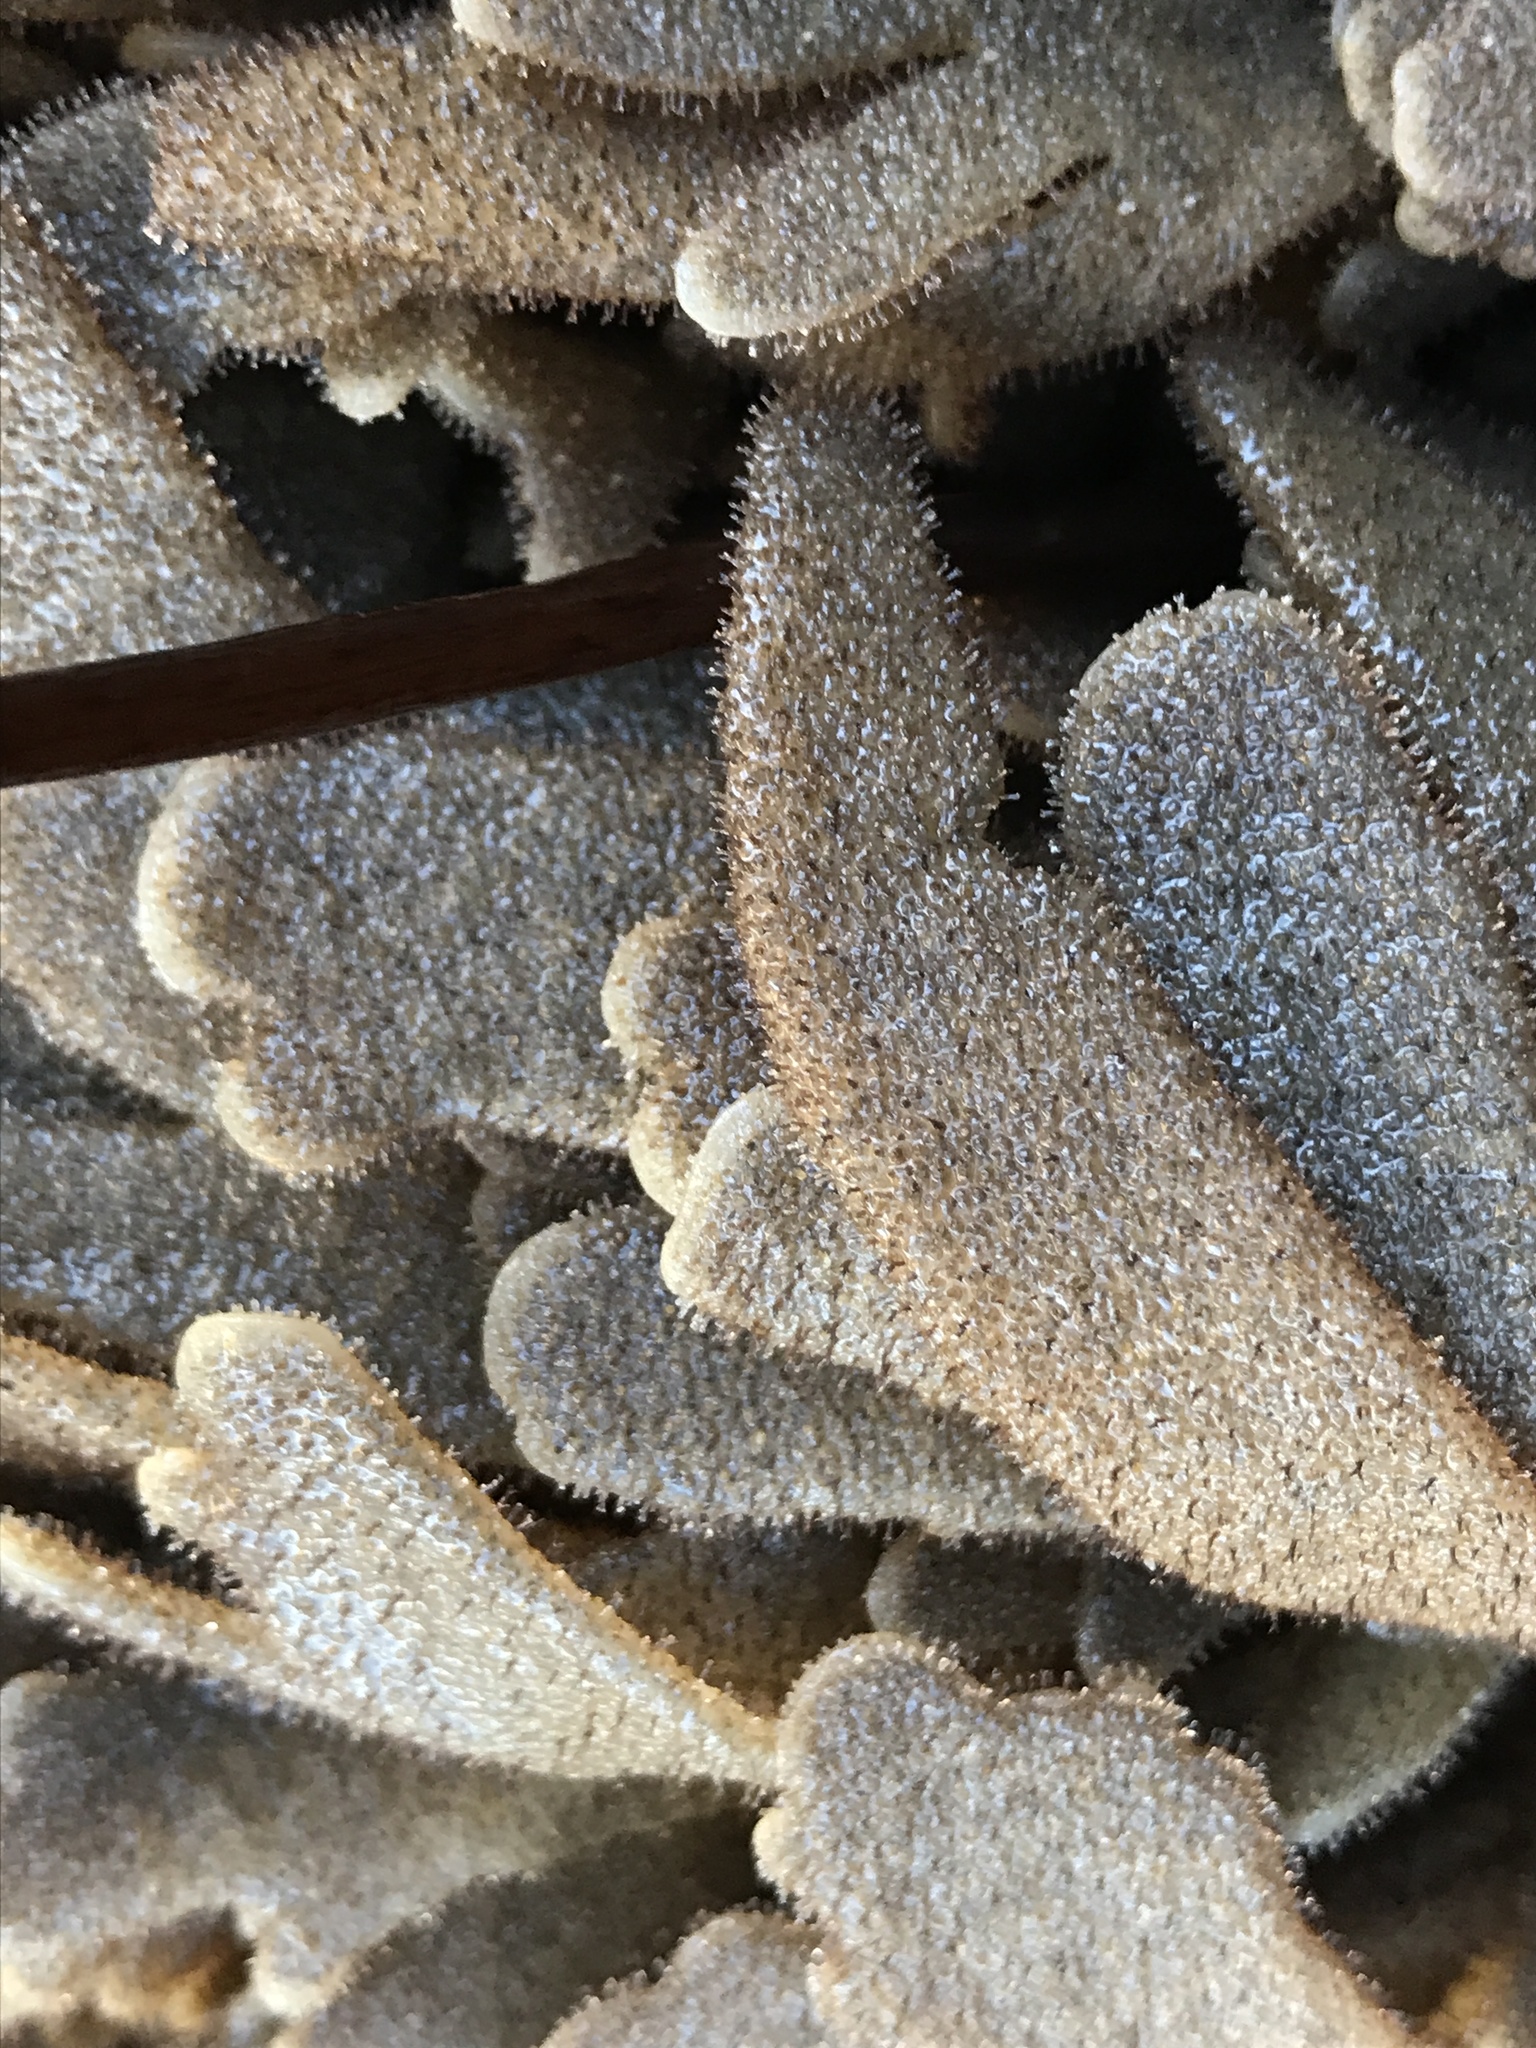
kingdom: Animalia
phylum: Bryozoa
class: Gymnolaemata
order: Ctenostomatida
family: Flustrellidridae
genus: Flustrellidra
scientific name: Flustrellidra corniculata
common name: Spiny leather bryozoan
